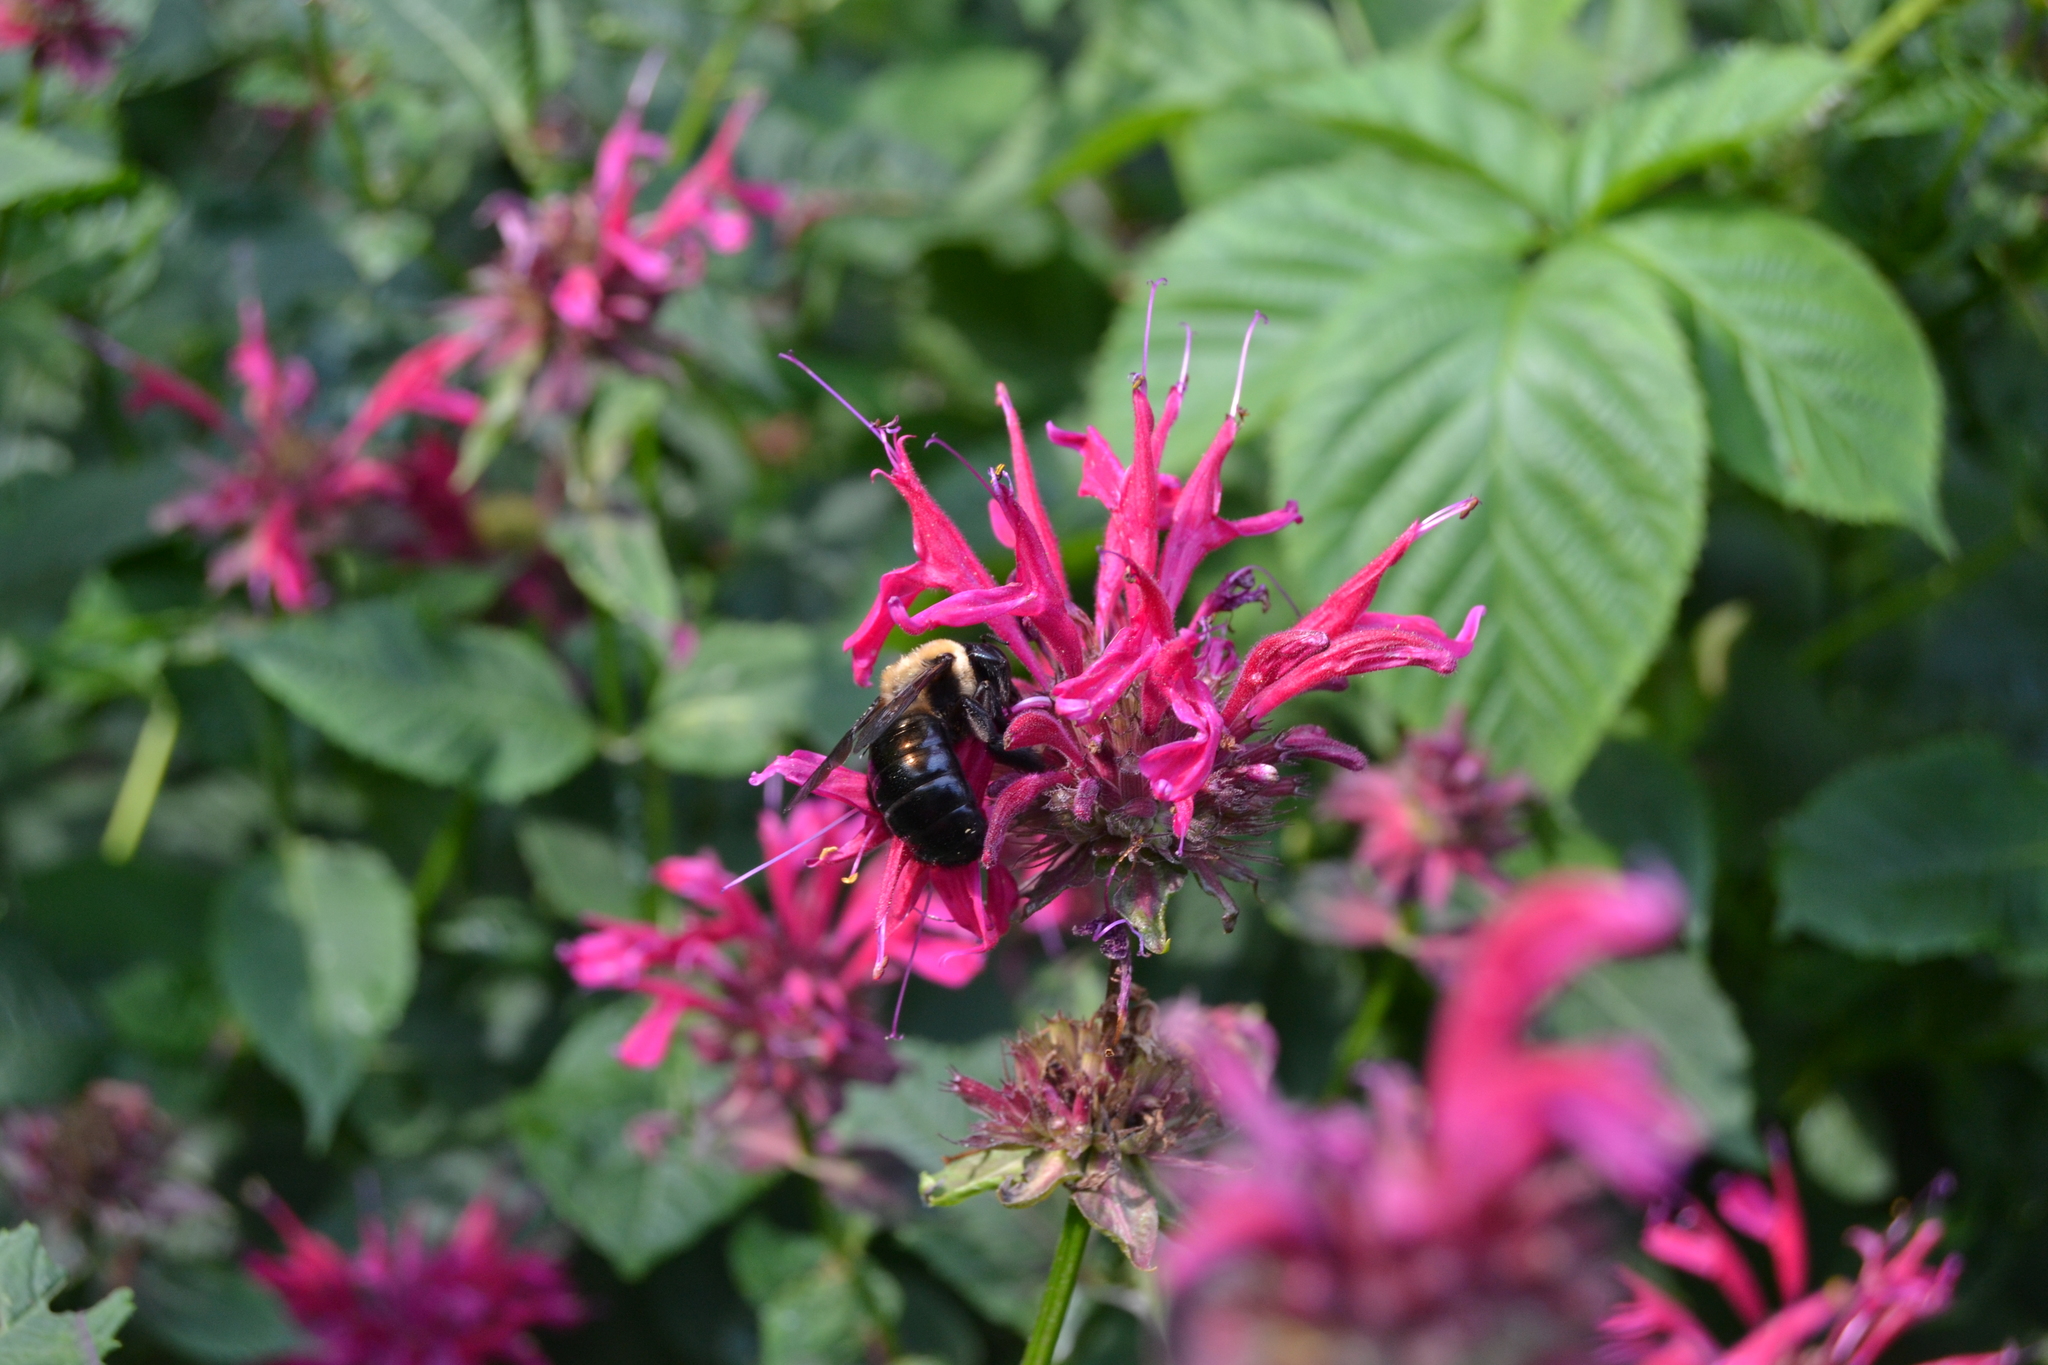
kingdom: Animalia
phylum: Arthropoda
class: Insecta
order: Hymenoptera
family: Apidae
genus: Xylocopa
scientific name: Xylocopa virginica
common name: Carpenter bee
